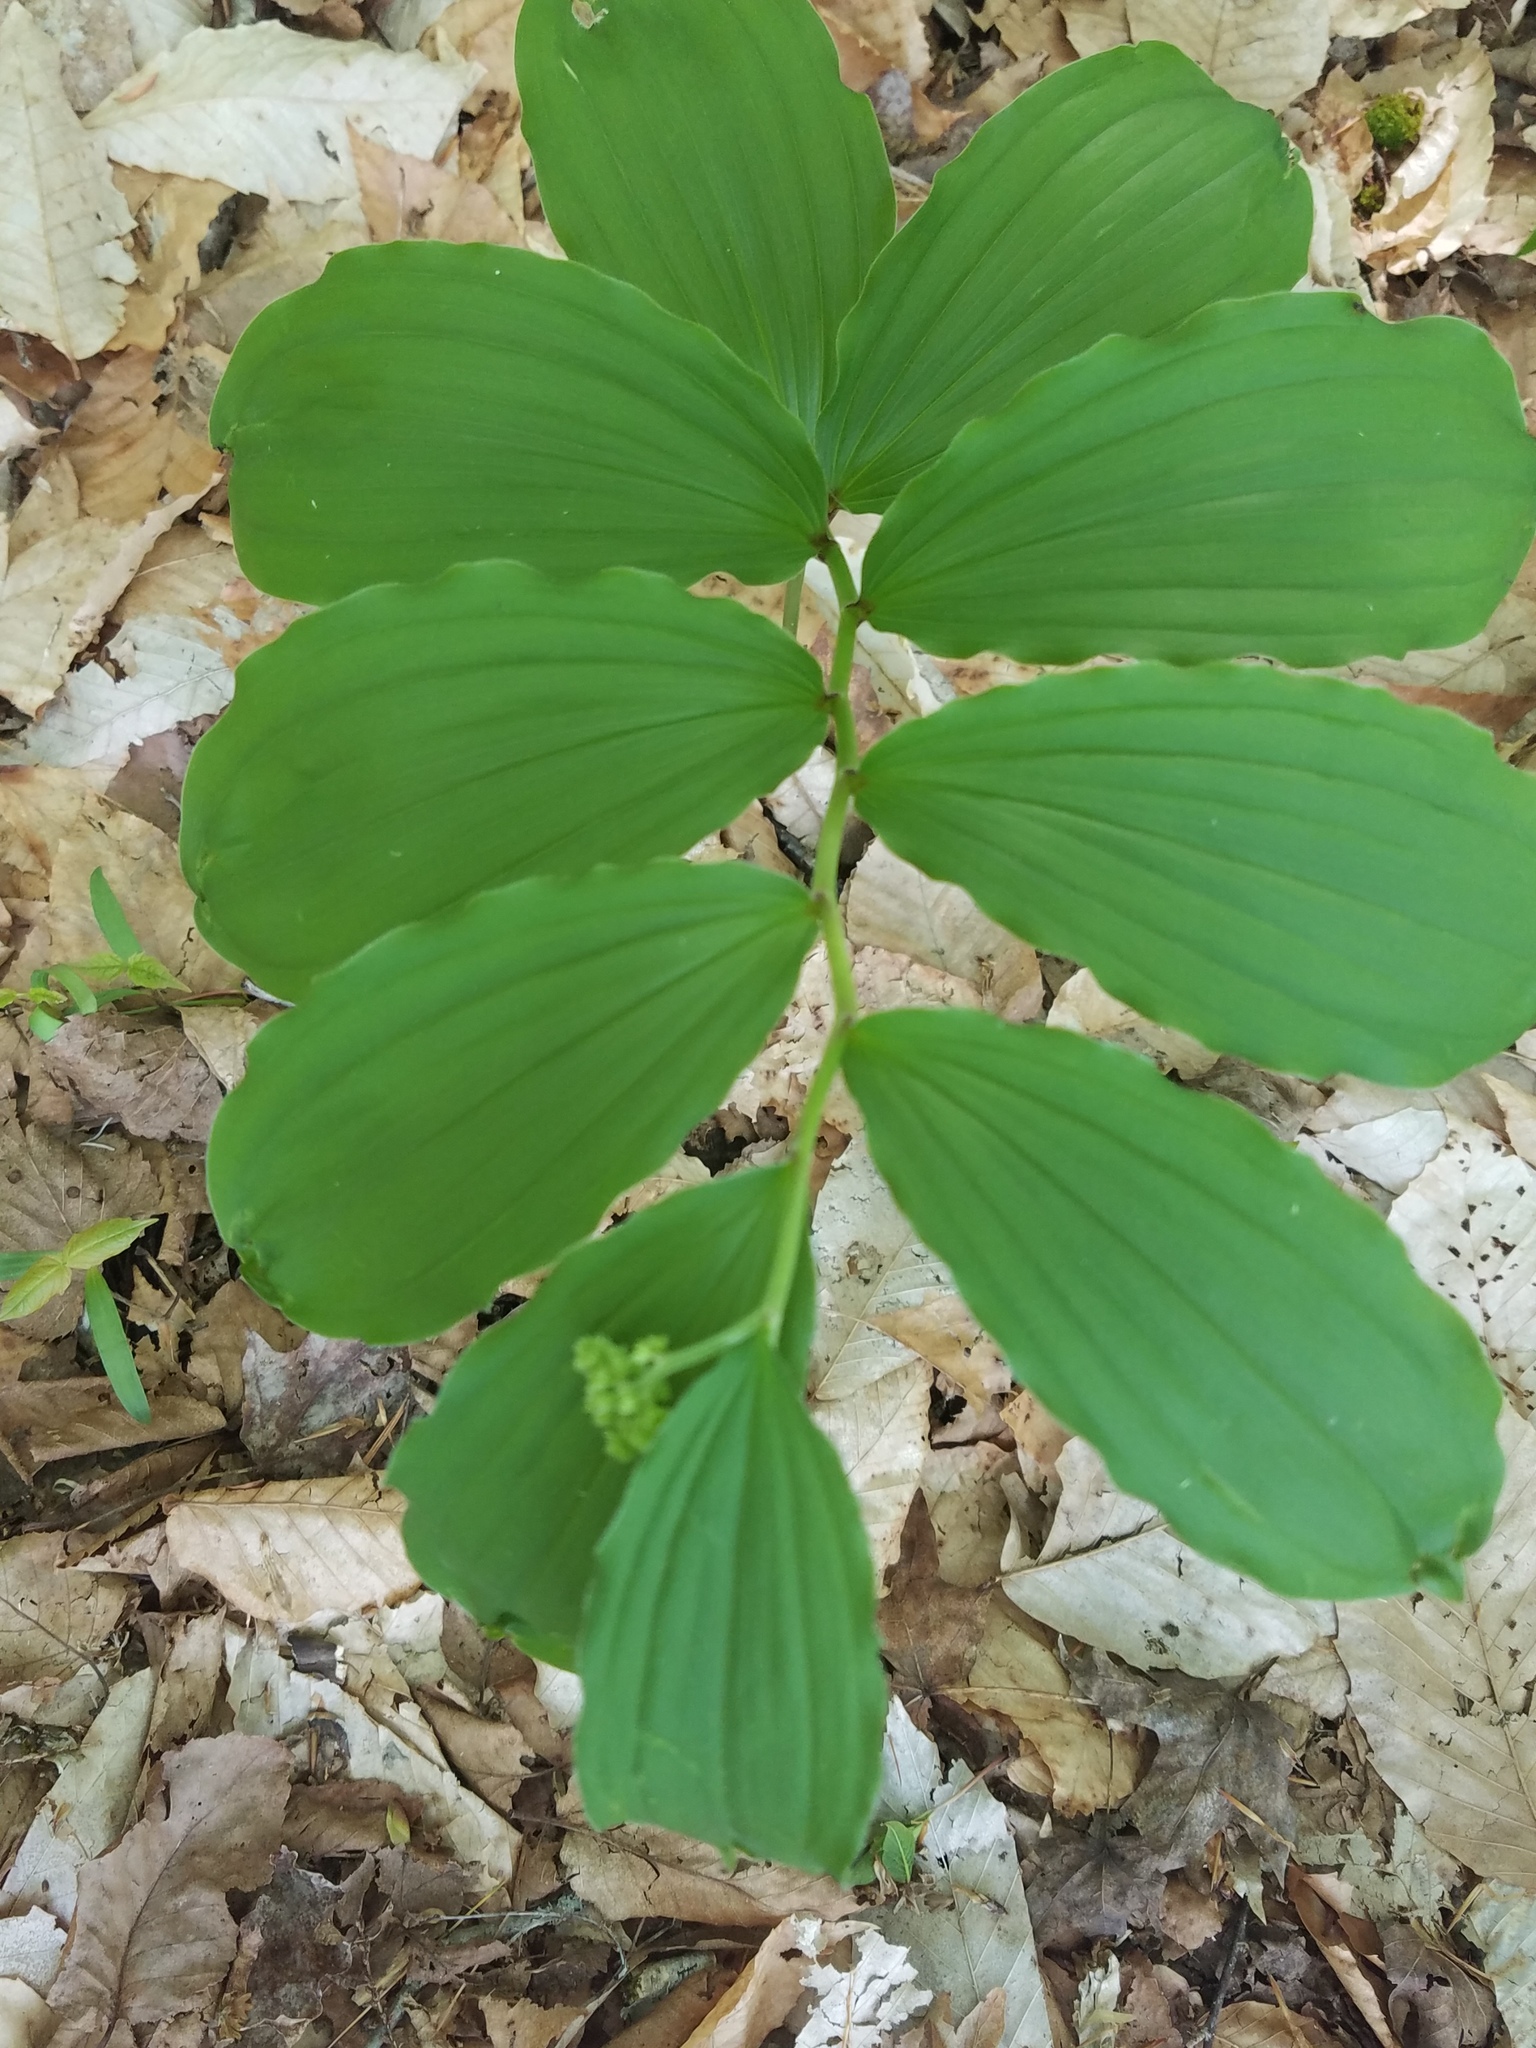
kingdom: Plantae
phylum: Tracheophyta
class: Liliopsida
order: Asparagales
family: Asparagaceae
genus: Maianthemum
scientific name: Maianthemum racemosum
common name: False spikenard
